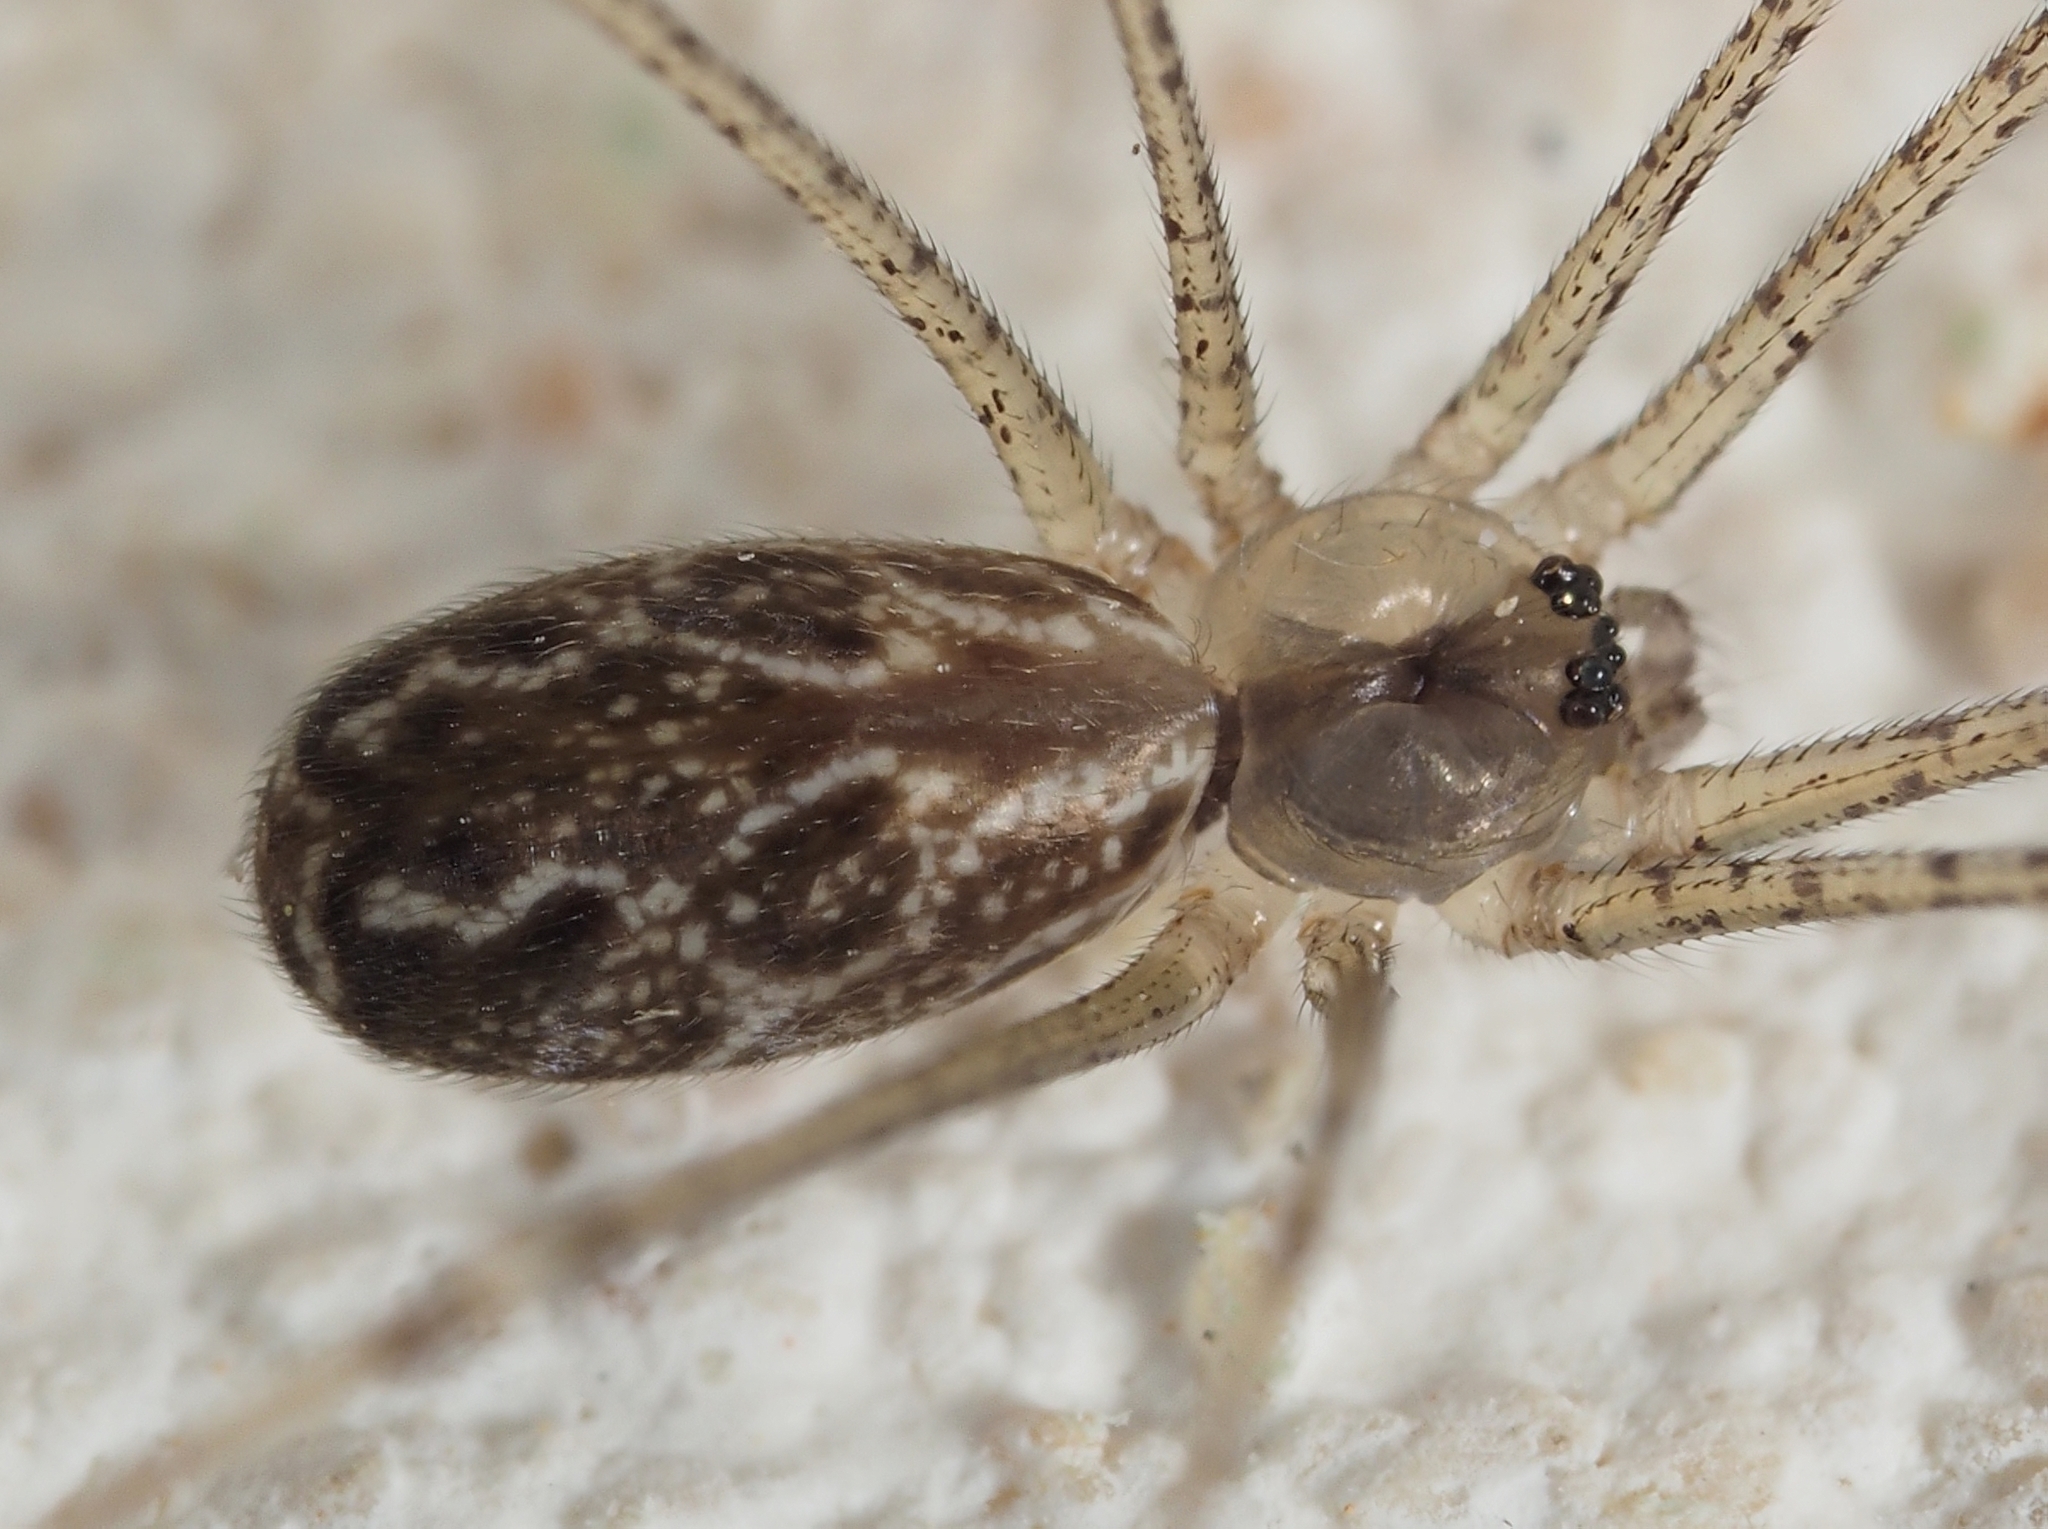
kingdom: Animalia
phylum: Arthropoda
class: Arachnida
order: Araneae
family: Pholcidae
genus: Holocnemus
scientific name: Holocnemus pluchei
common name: Marbled cellar spider
